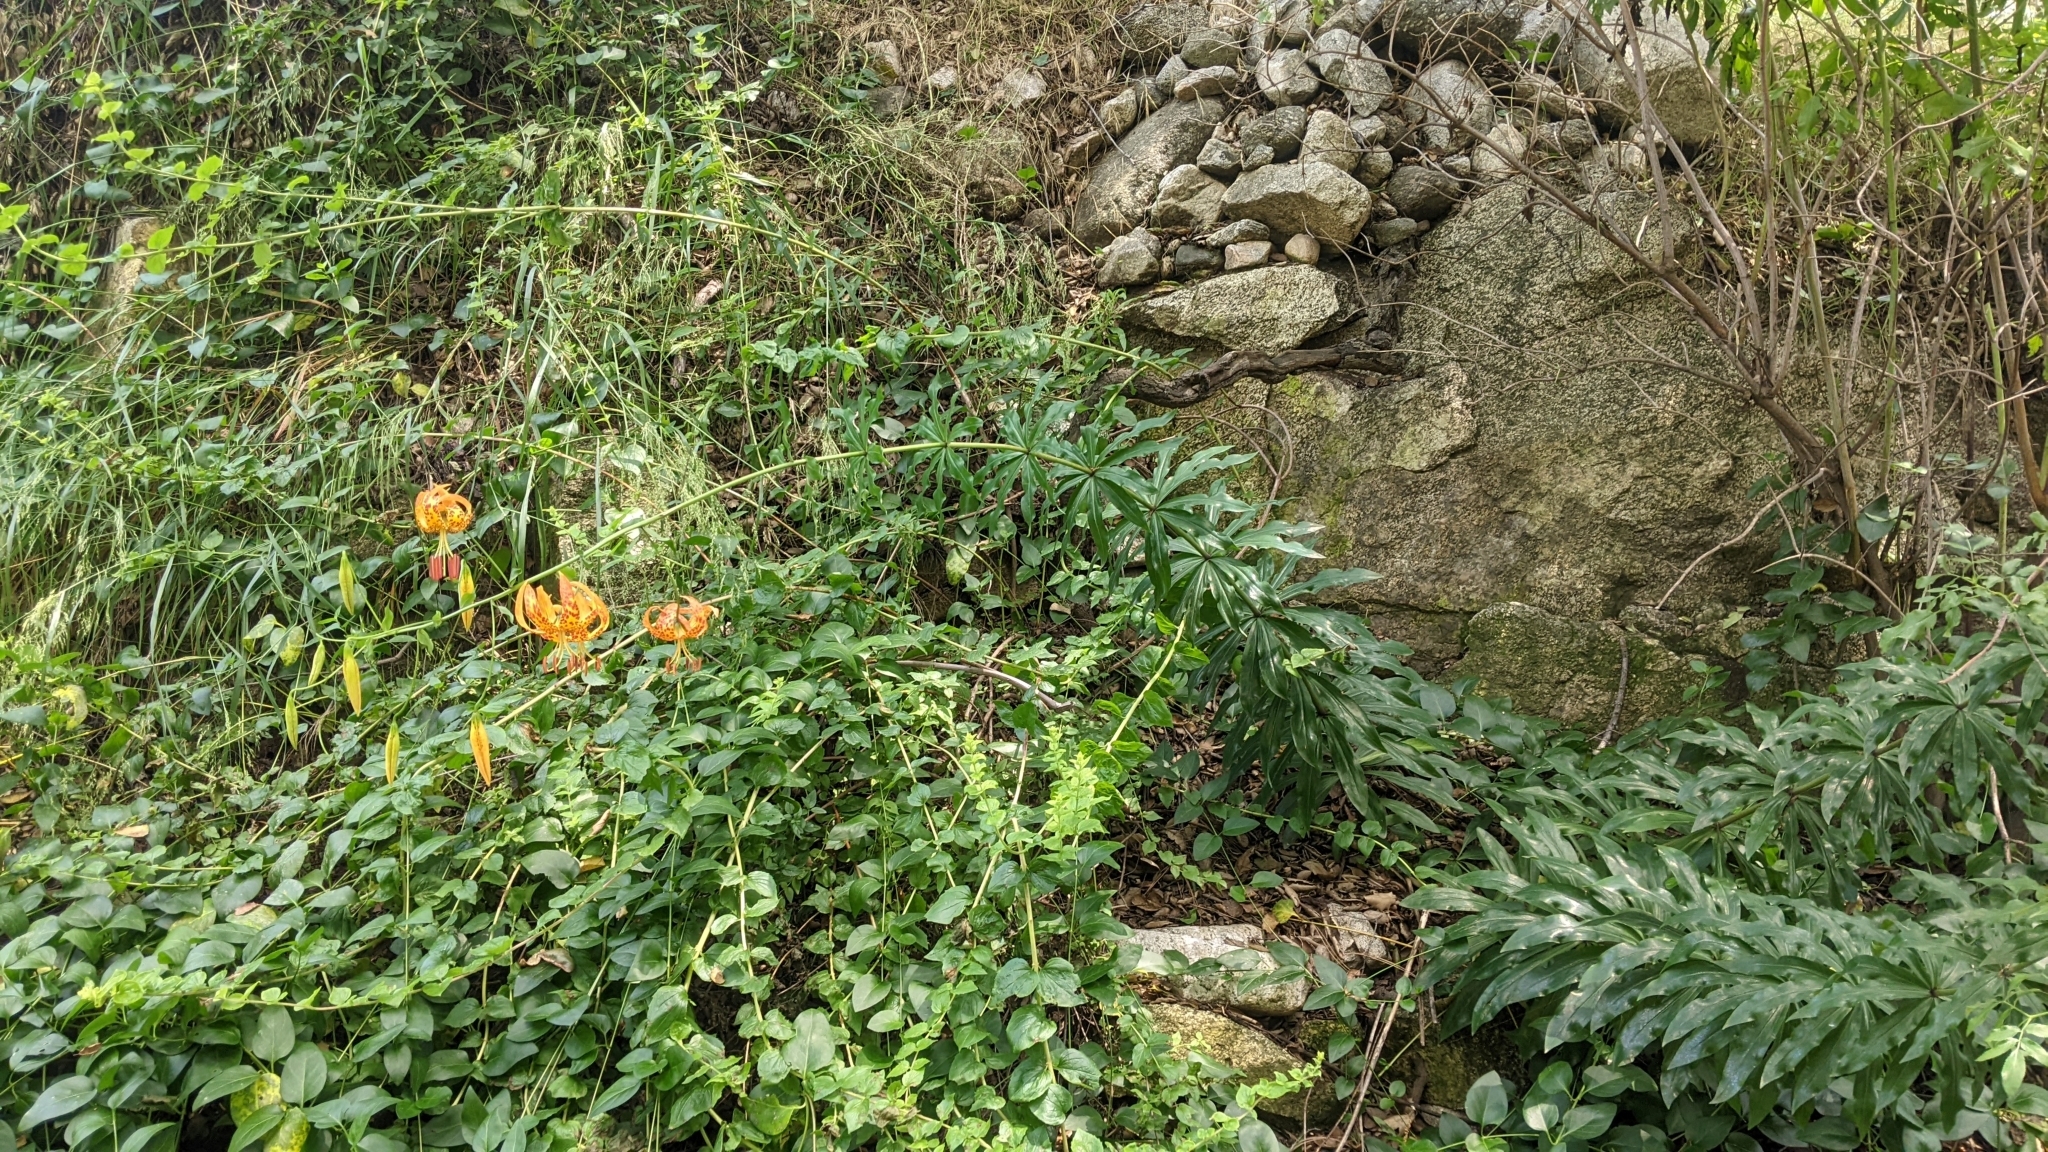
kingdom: Plantae
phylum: Tracheophyta
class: Liliopsida
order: Liliales
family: Liliaceae
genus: Lilium
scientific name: Lilium humboldtii
